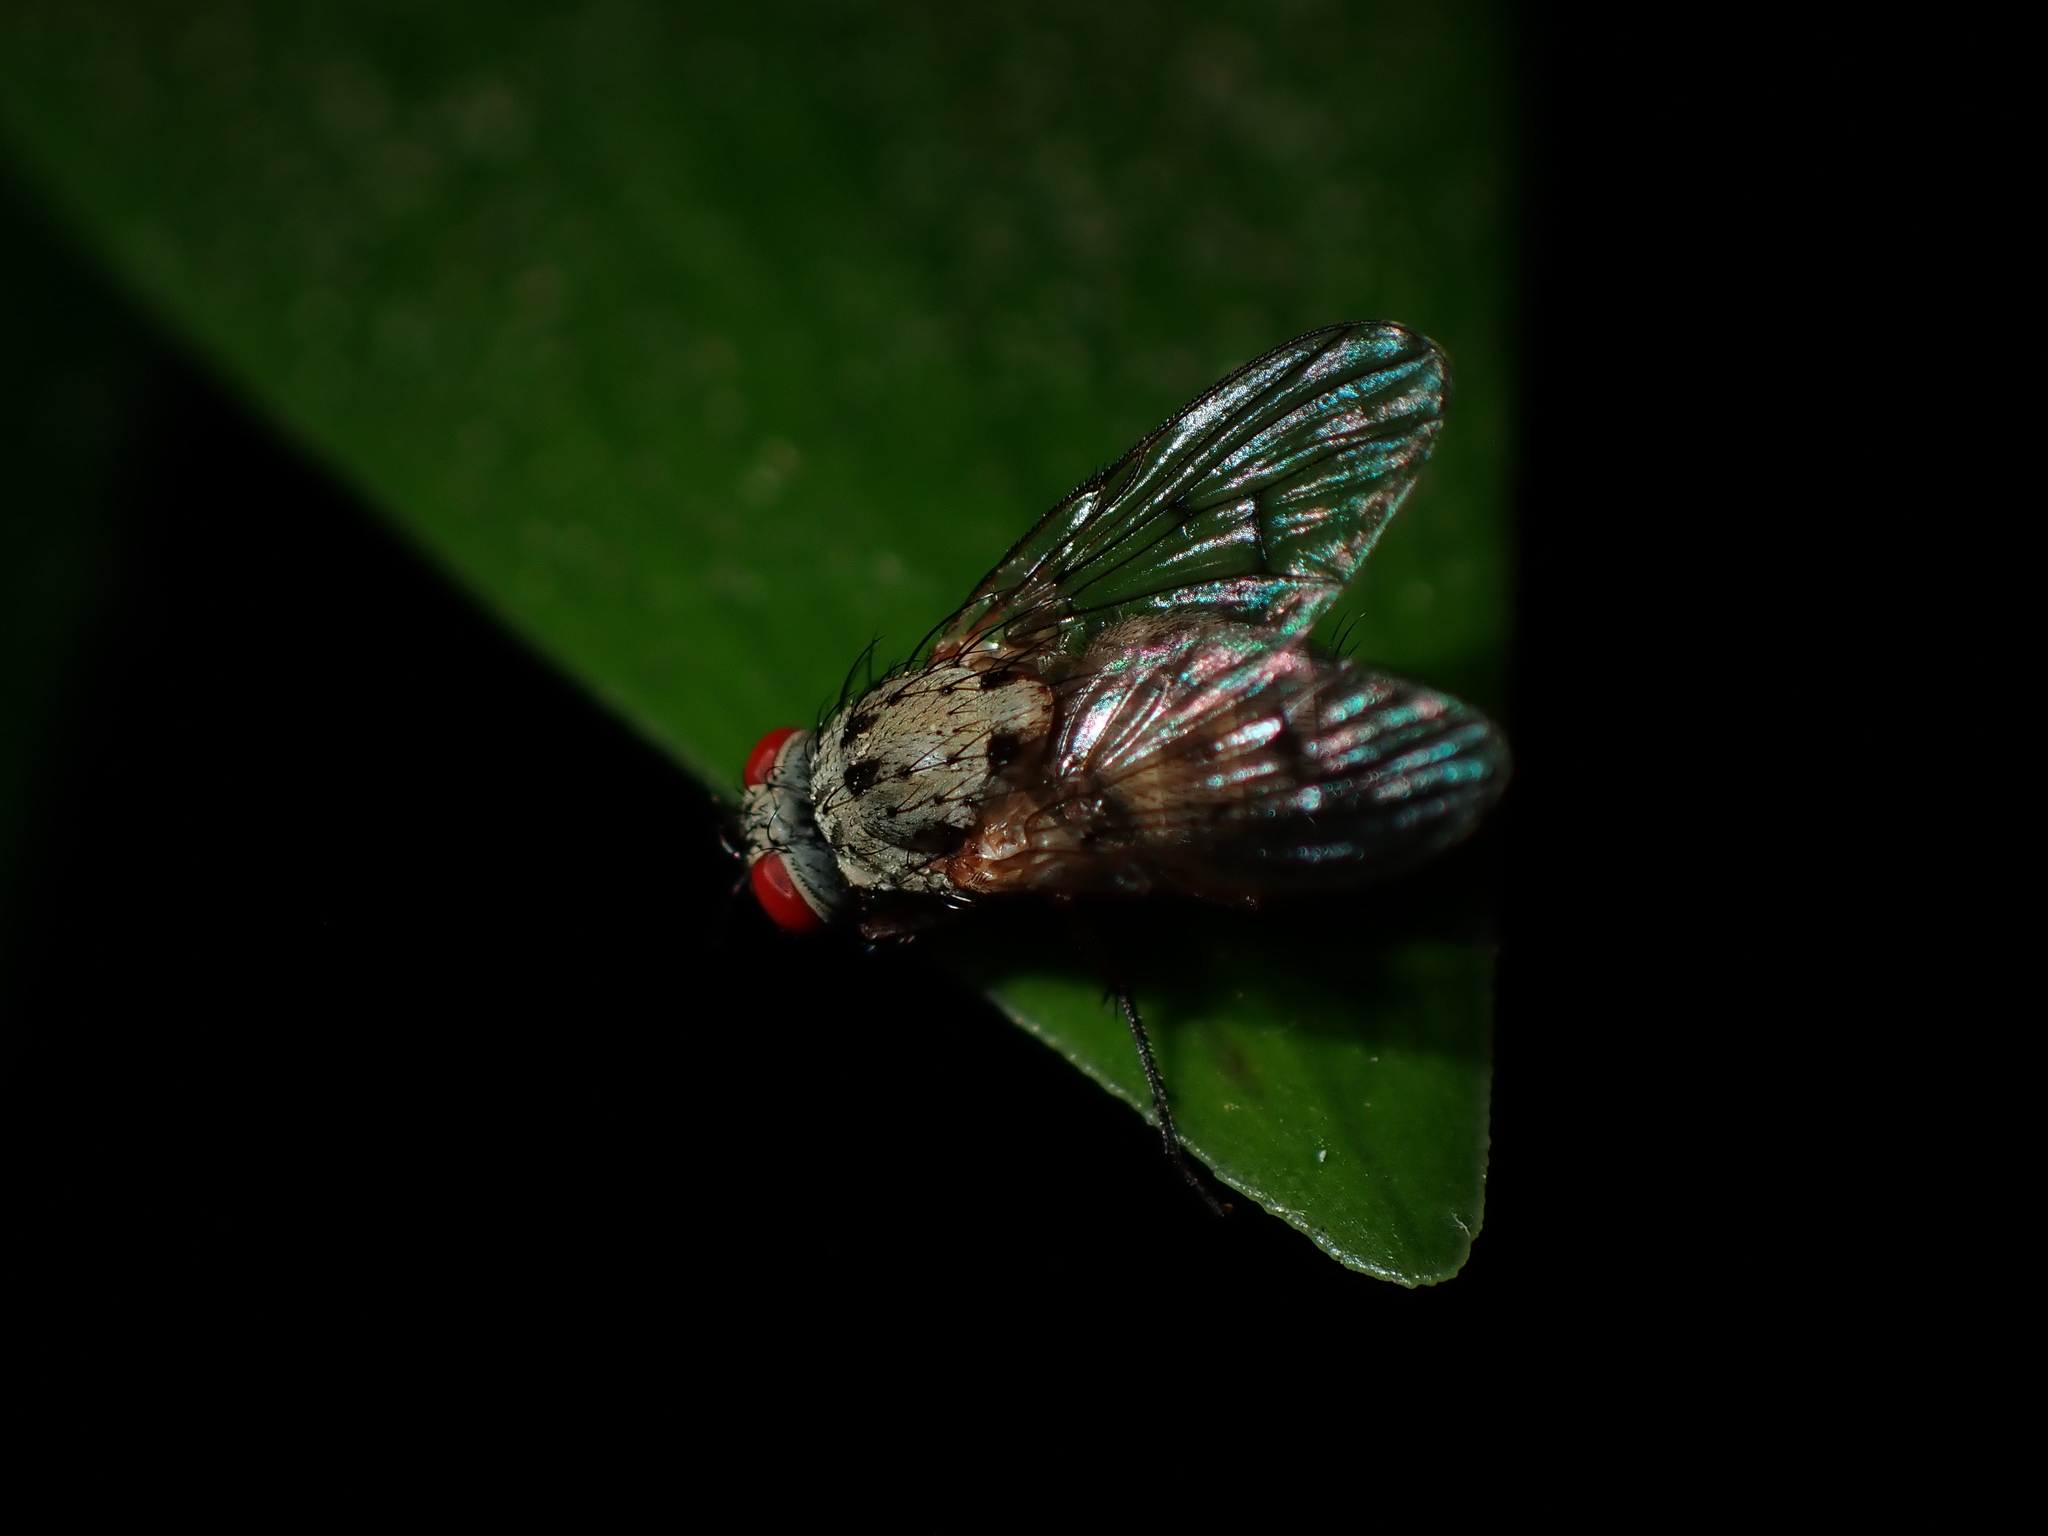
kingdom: Animalia
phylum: Arthropoda
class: Insecta
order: Diptera
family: Muscidae
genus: Helina
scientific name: Helina sexmaculata
